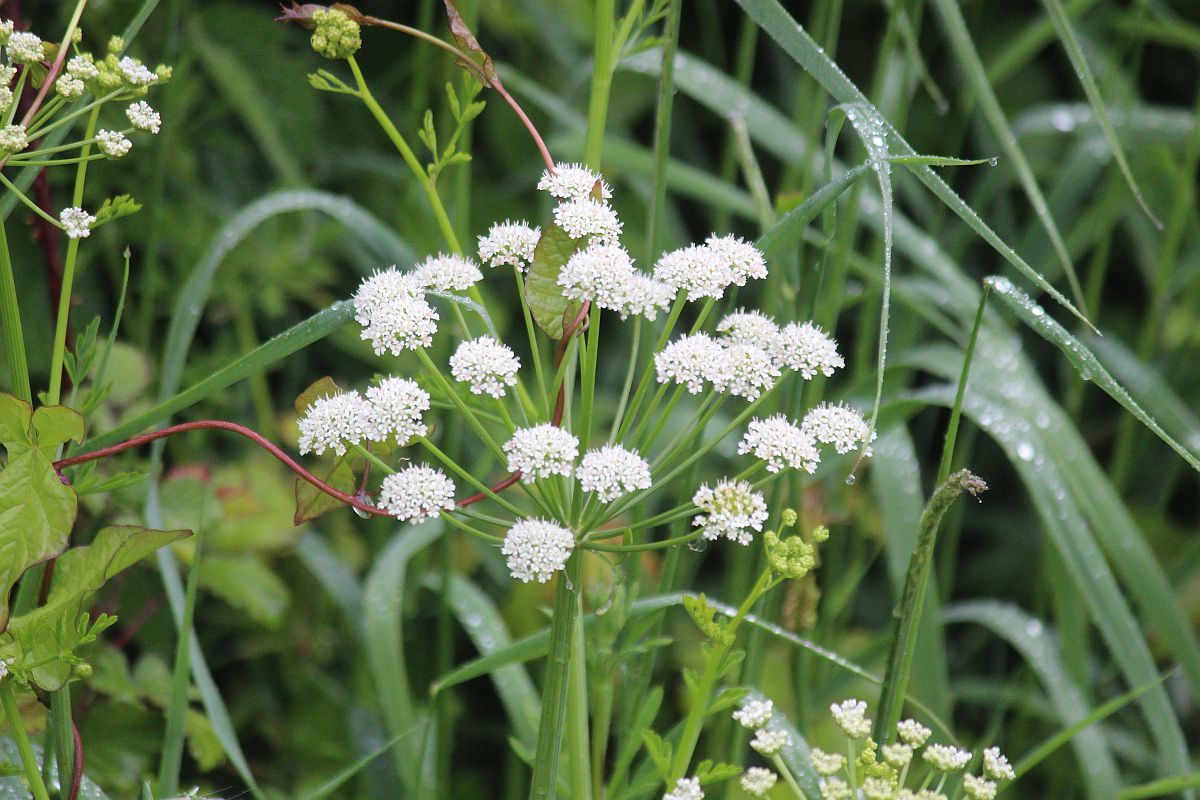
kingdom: Plantae
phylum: Tracheophyta
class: Magnoliopsida
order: Apiales
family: Apiaceae
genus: Oenanthe
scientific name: Oenanthe crocata
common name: Hemlock water-dropwort
